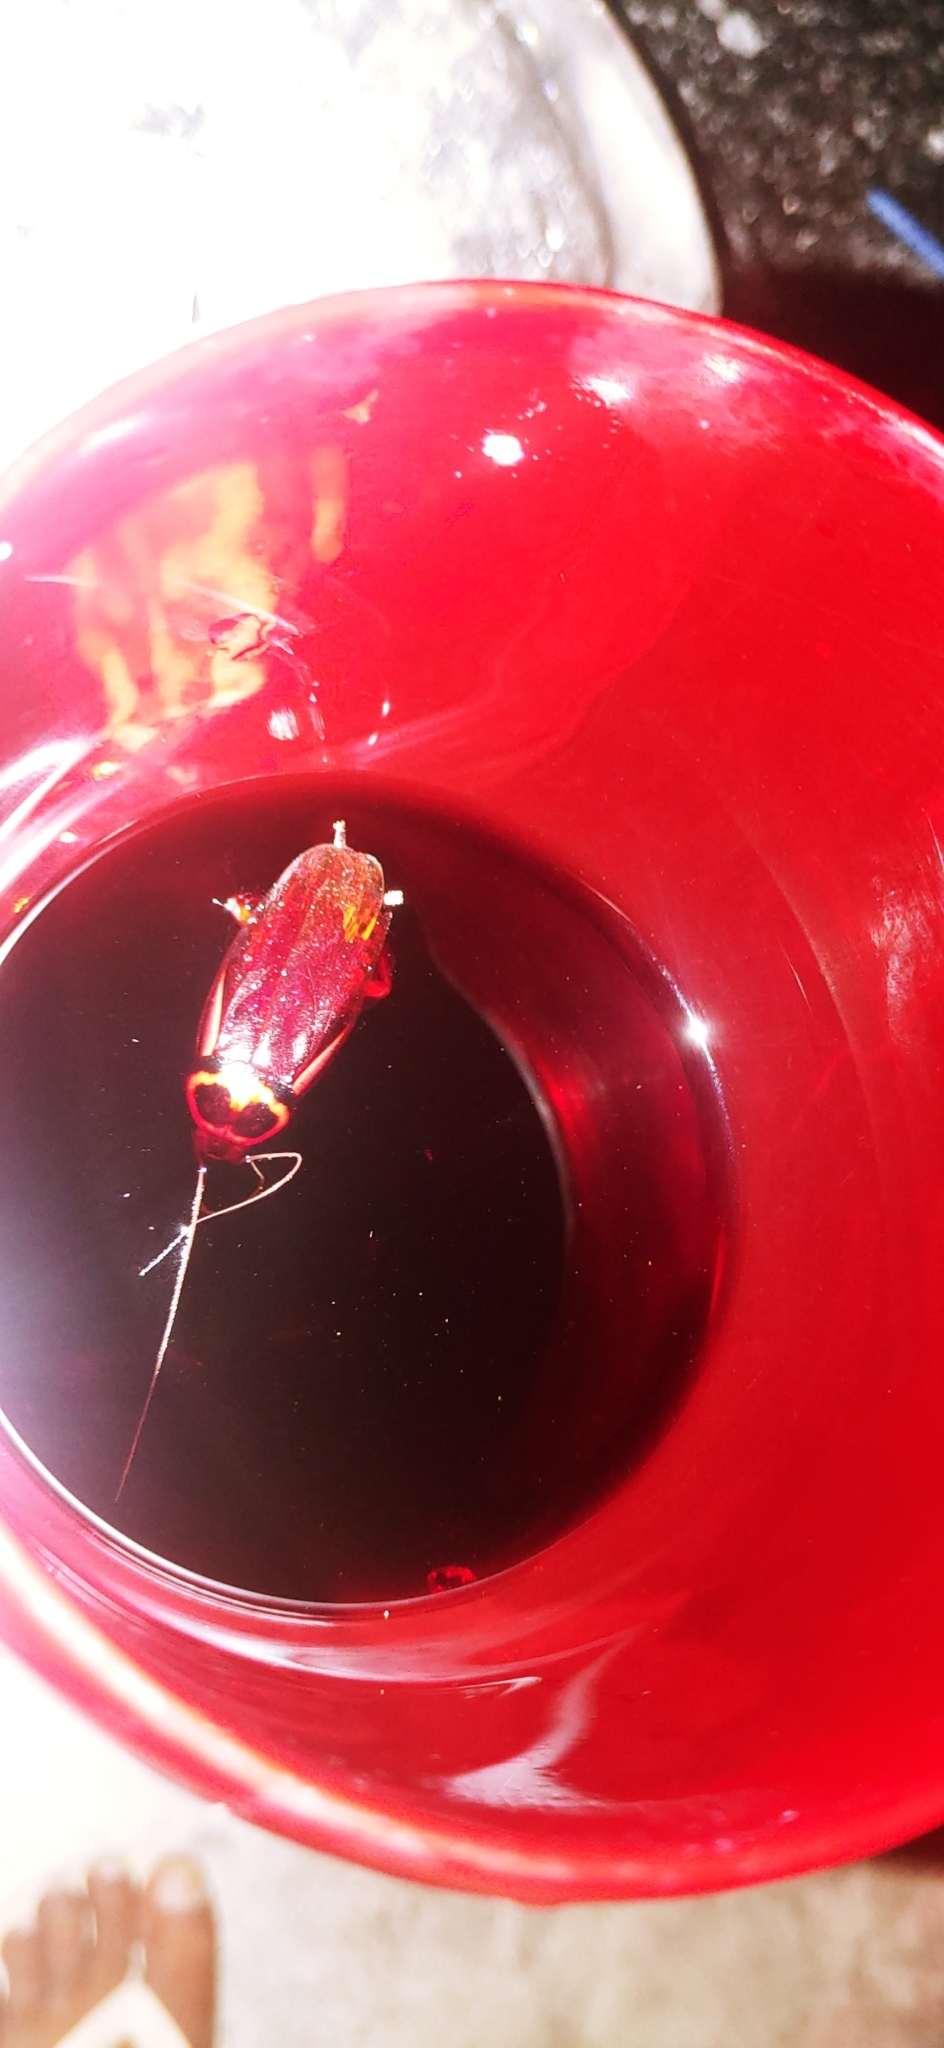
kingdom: Animalia
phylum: Arthropoda
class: Insecta
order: Blattodea
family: Blattidae
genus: Periplaneta
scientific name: Periplaneta australasiae
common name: Australian cockroach
